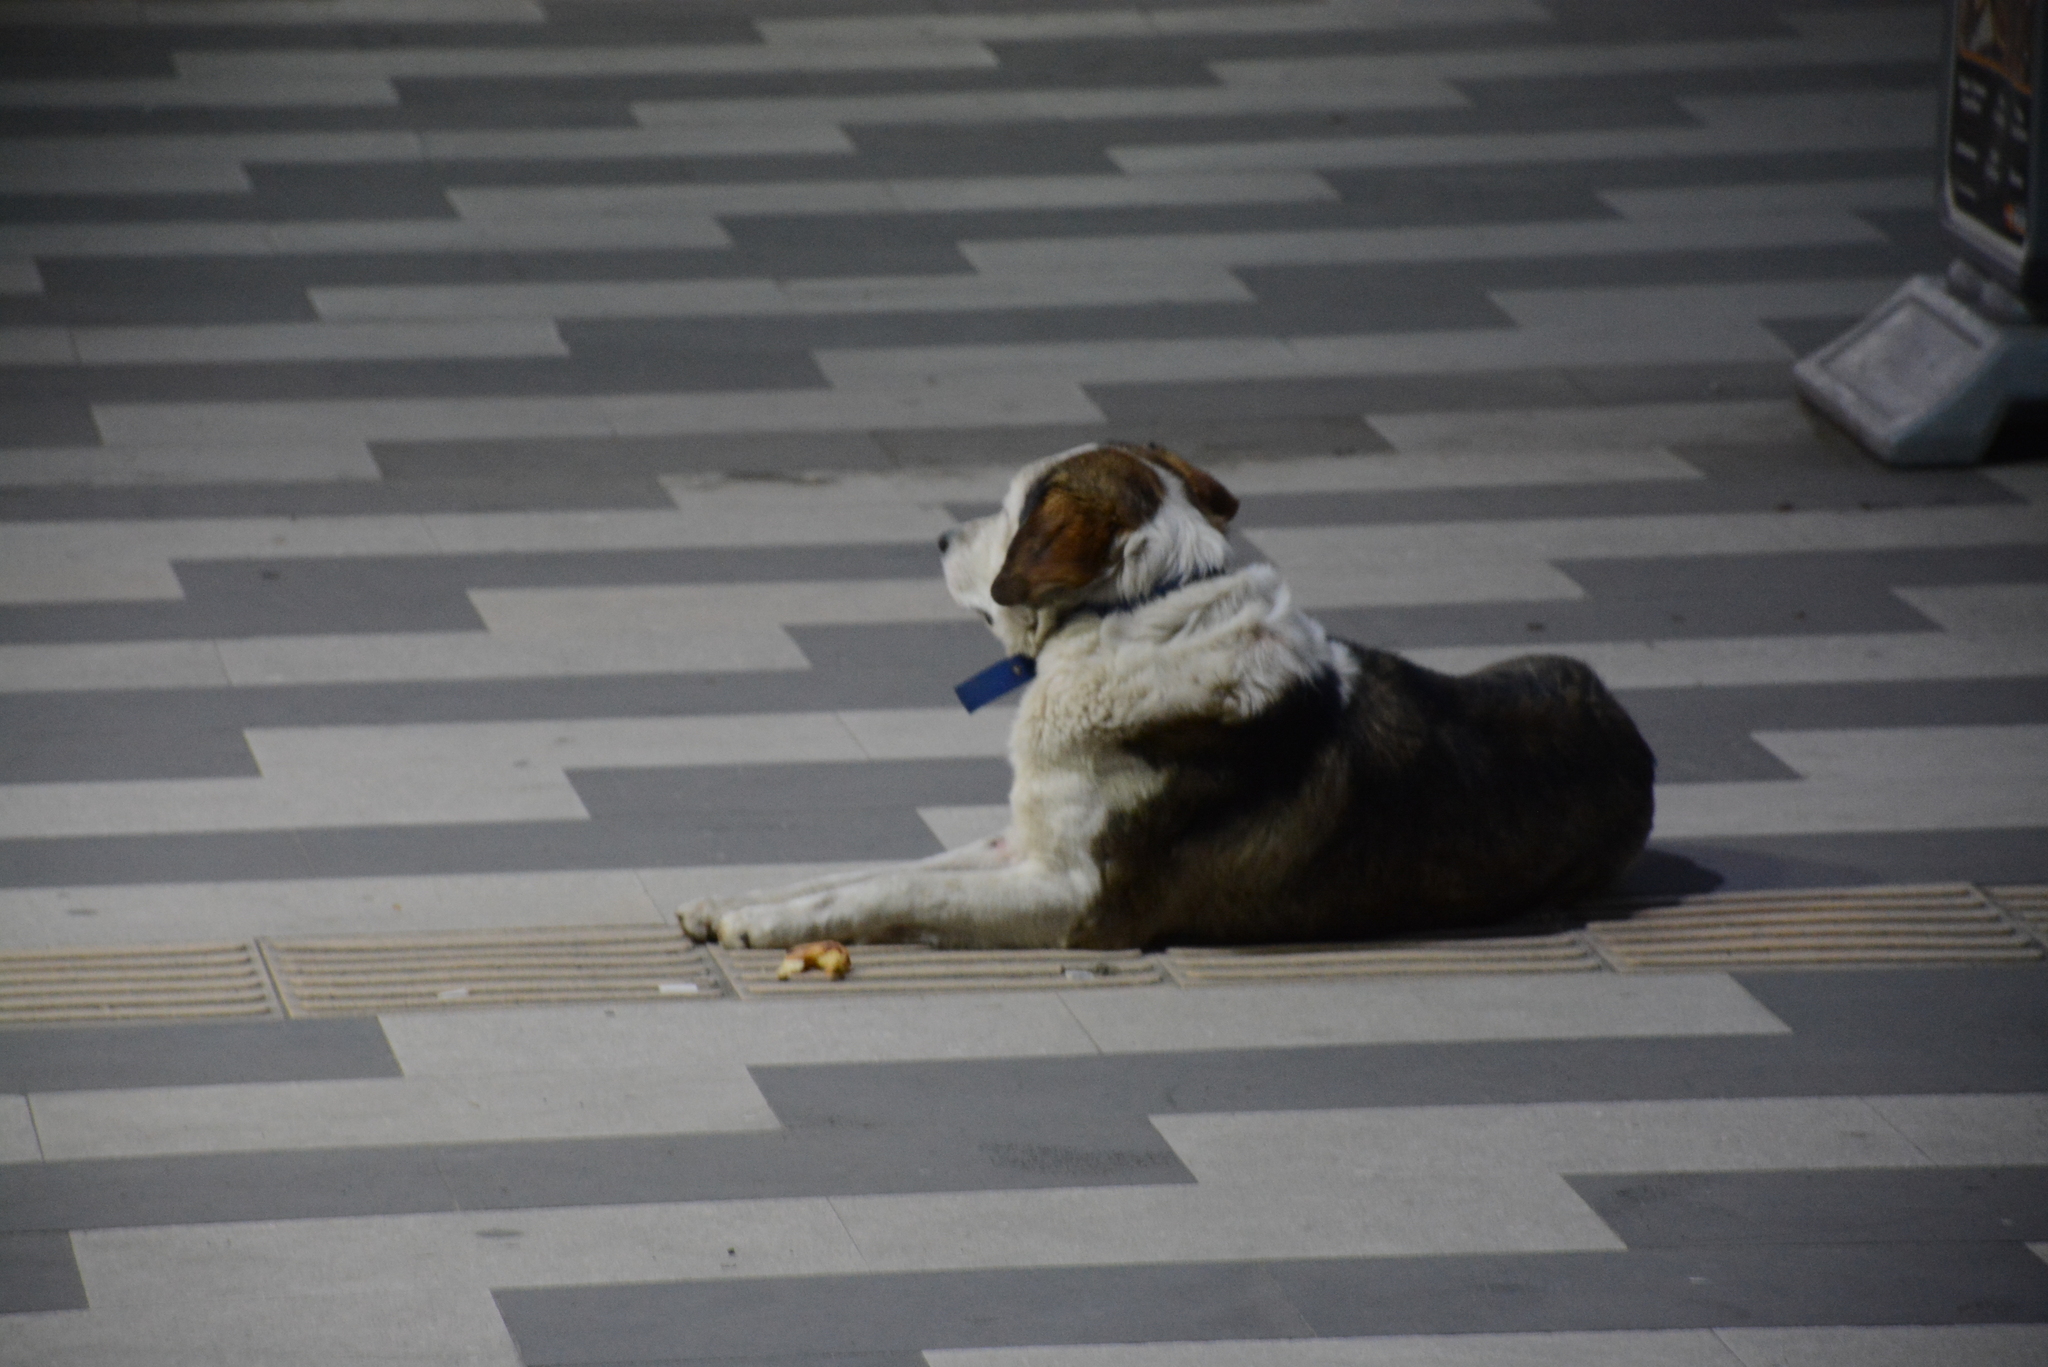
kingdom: Animalia
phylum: Chordata
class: Mammalia
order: Carnivora
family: Canidae
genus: Canis
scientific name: Canis lupus
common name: Gray wolf
